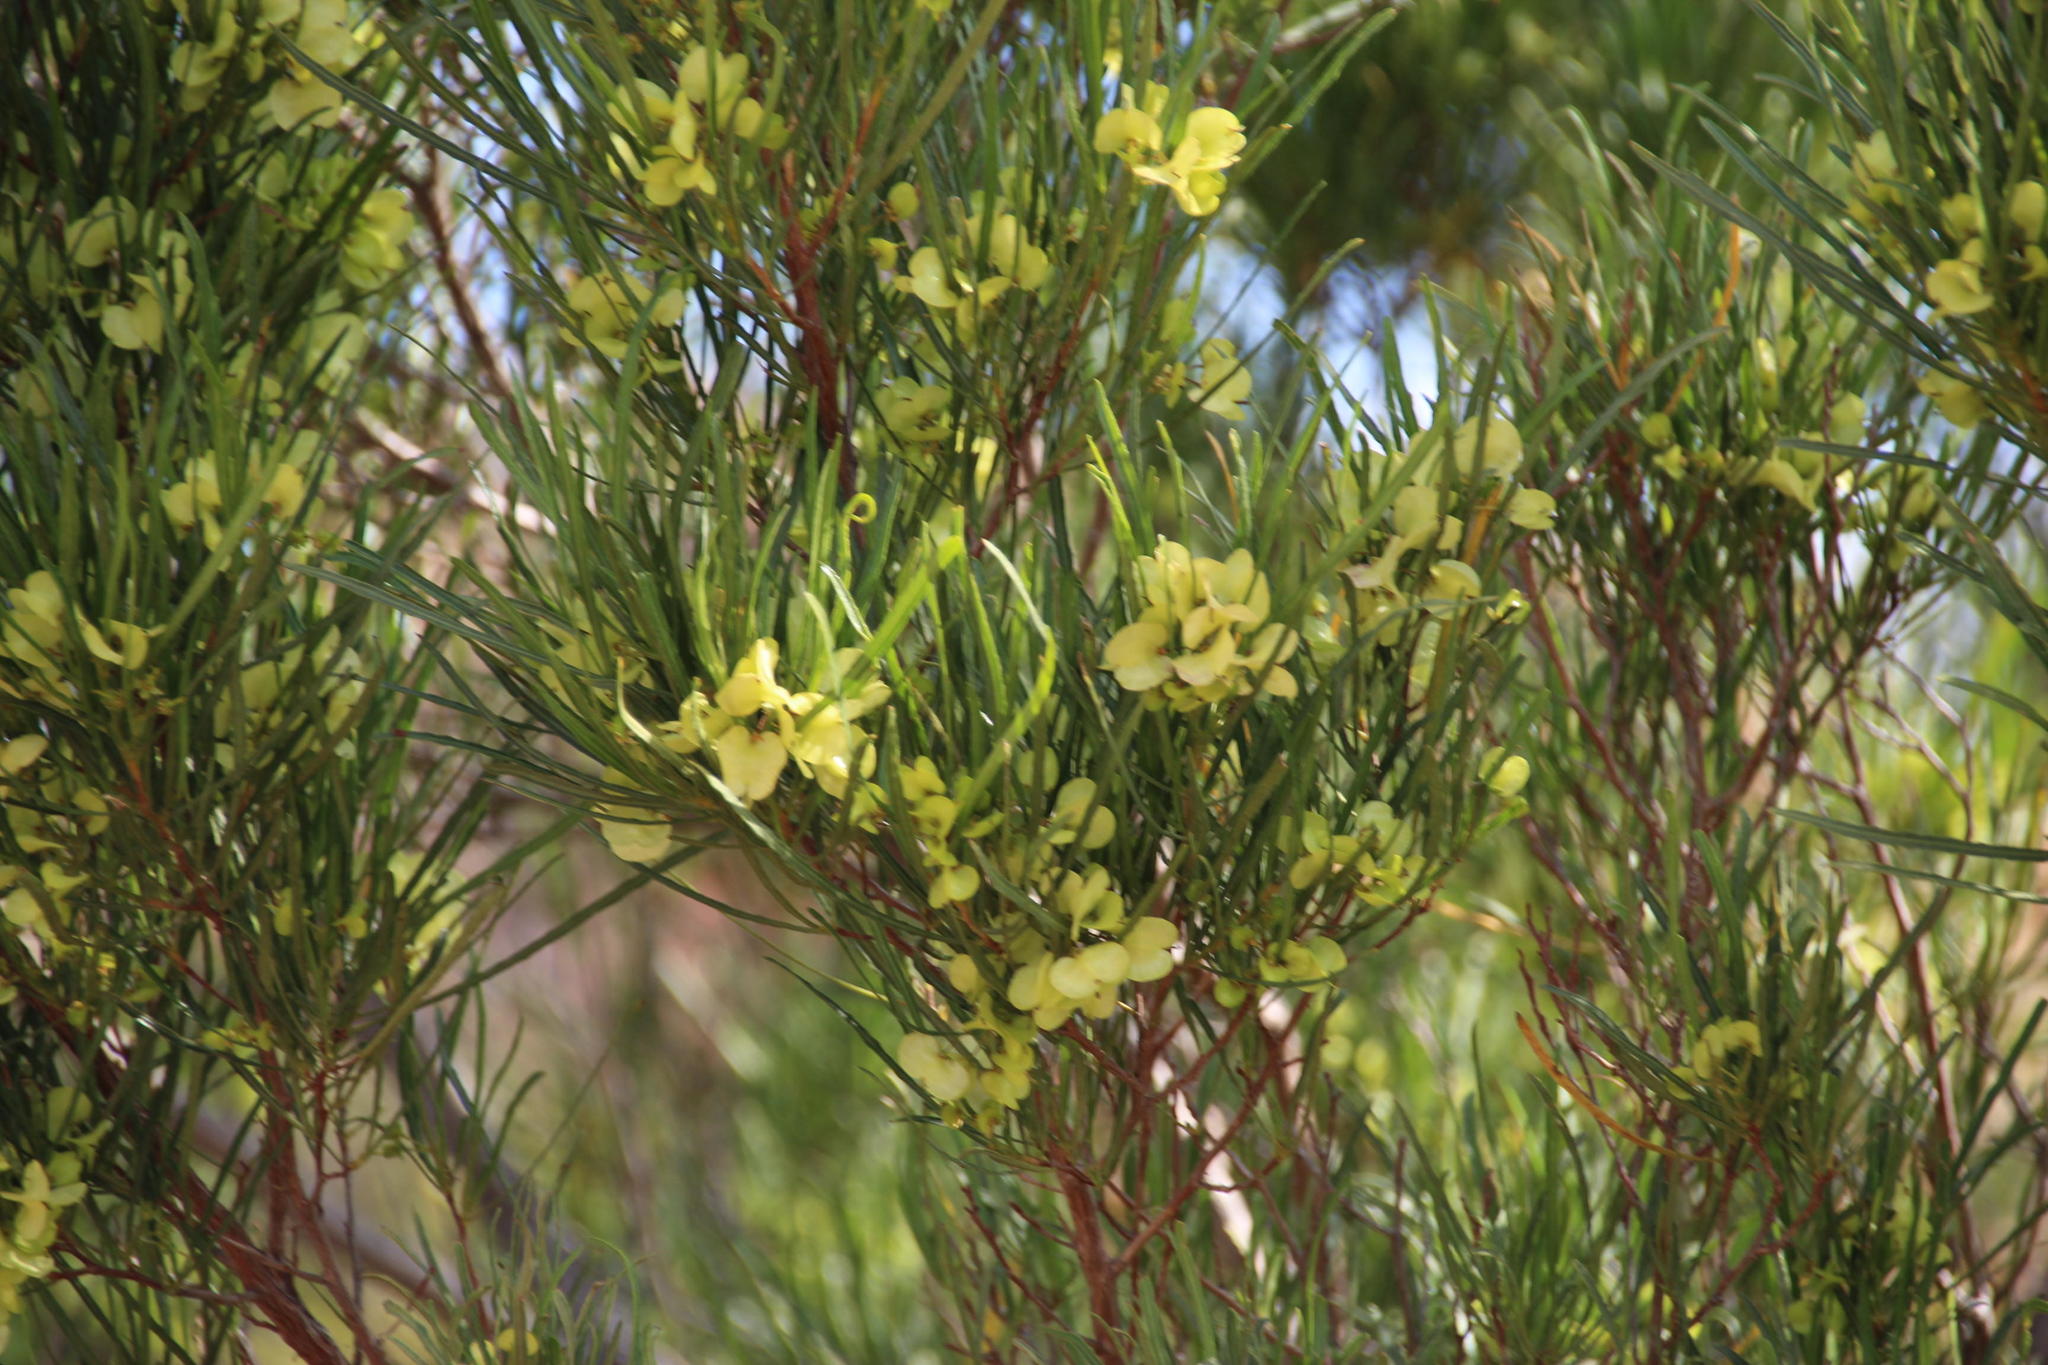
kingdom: Plantae
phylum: Tracheophyta
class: Magnoliopsida
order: Sapindales
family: Sapindaceae
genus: Dodonaea
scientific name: Dodonaea viscosa
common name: Hopbush
